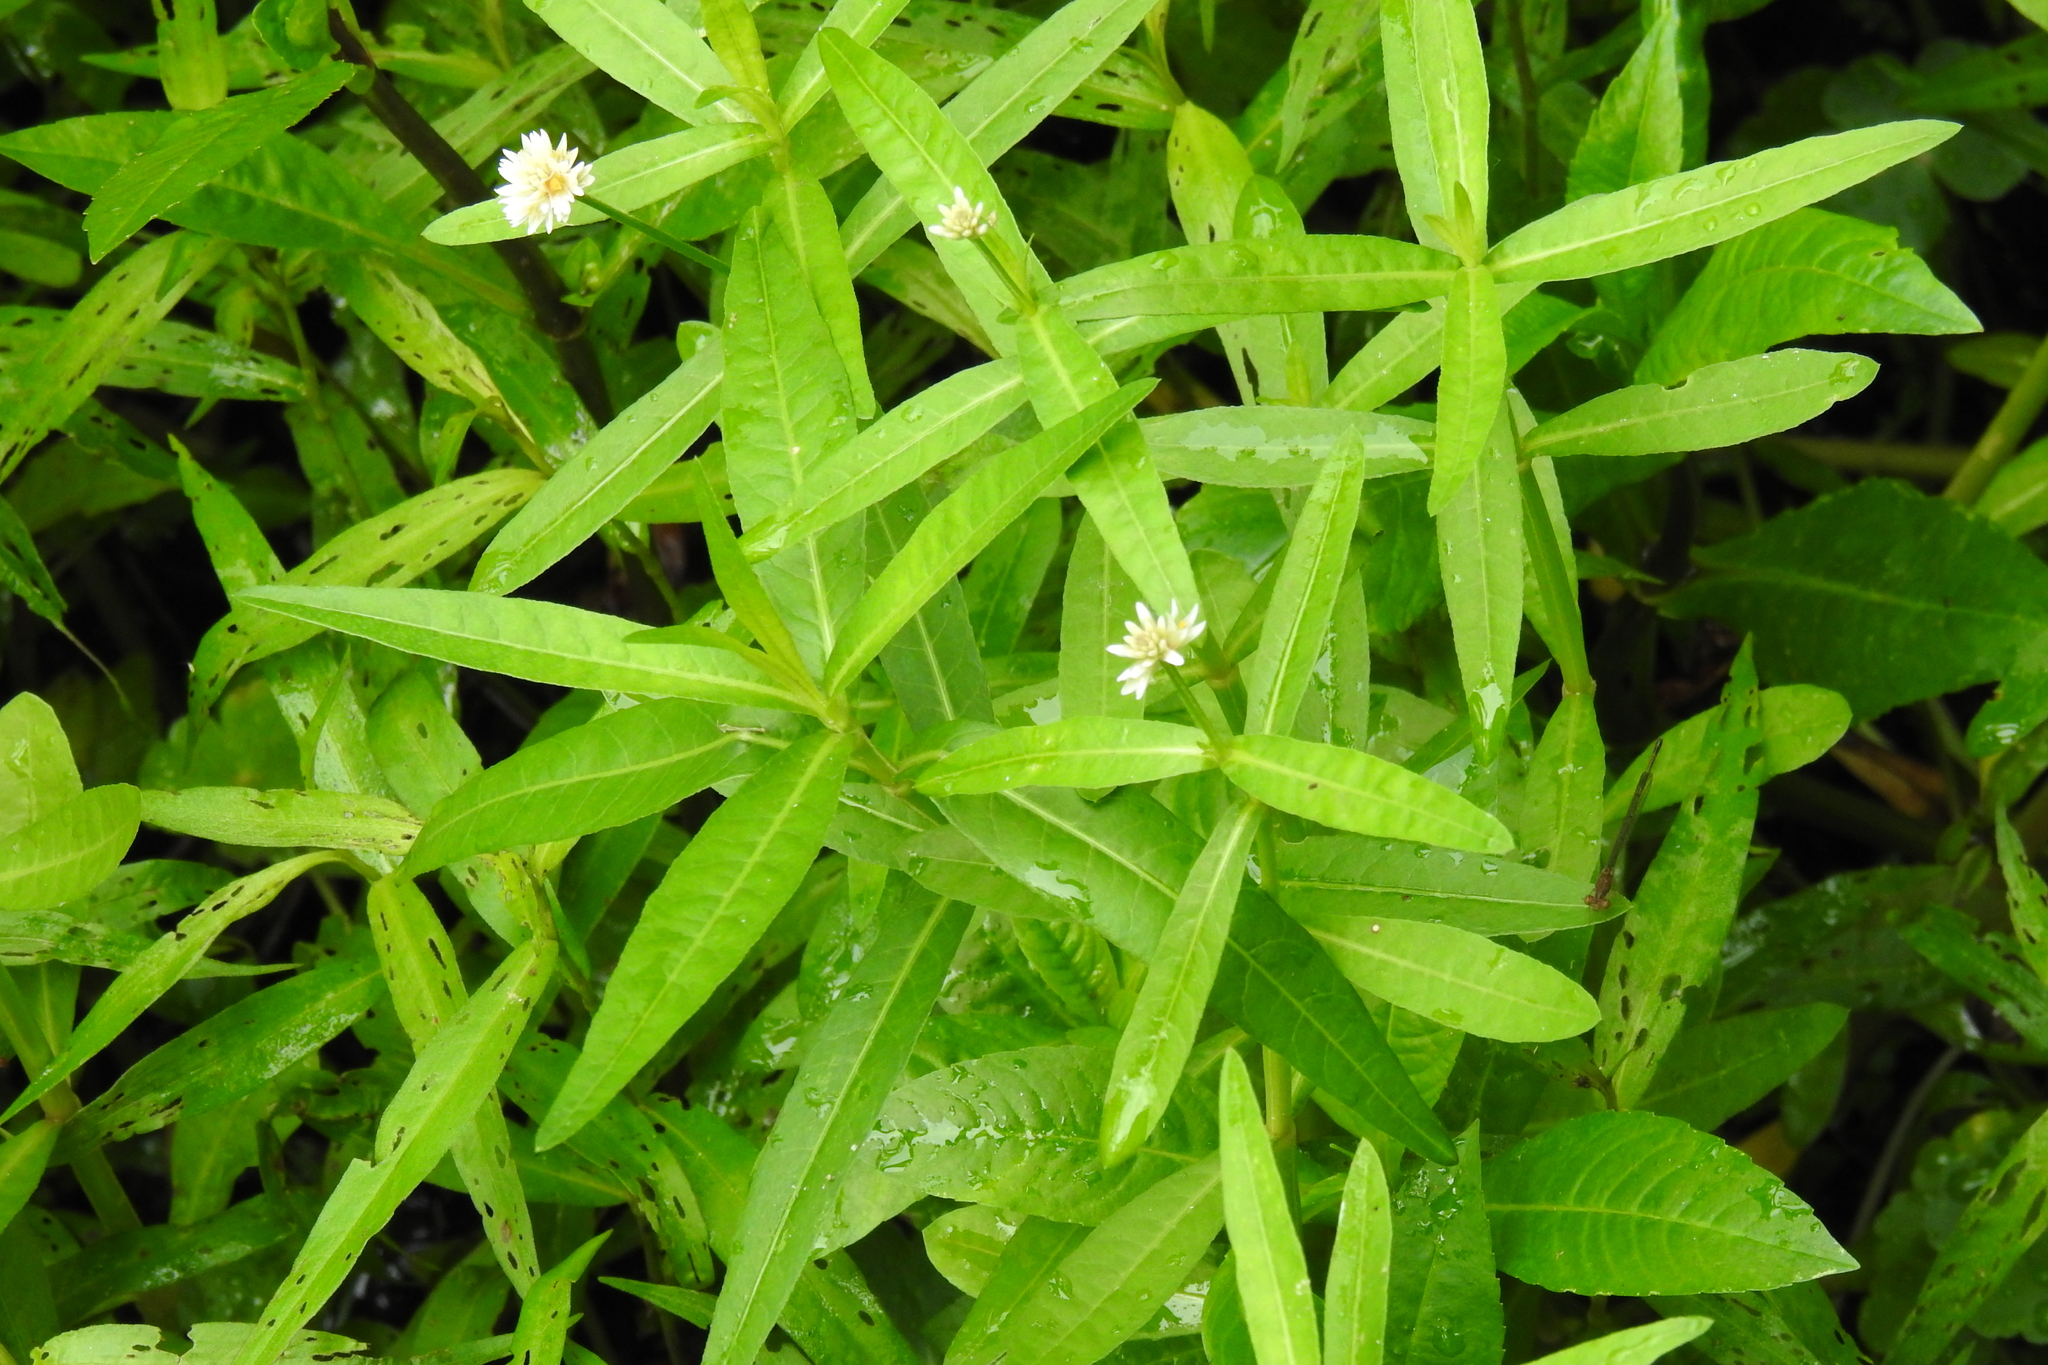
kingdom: Plantae
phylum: Tracheophyta
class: Magnoliopsida
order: Caryophyllales
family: Amaranthaceae
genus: Alternanthera
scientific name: Alternanthera philoxeroides
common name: Alligatorweed
